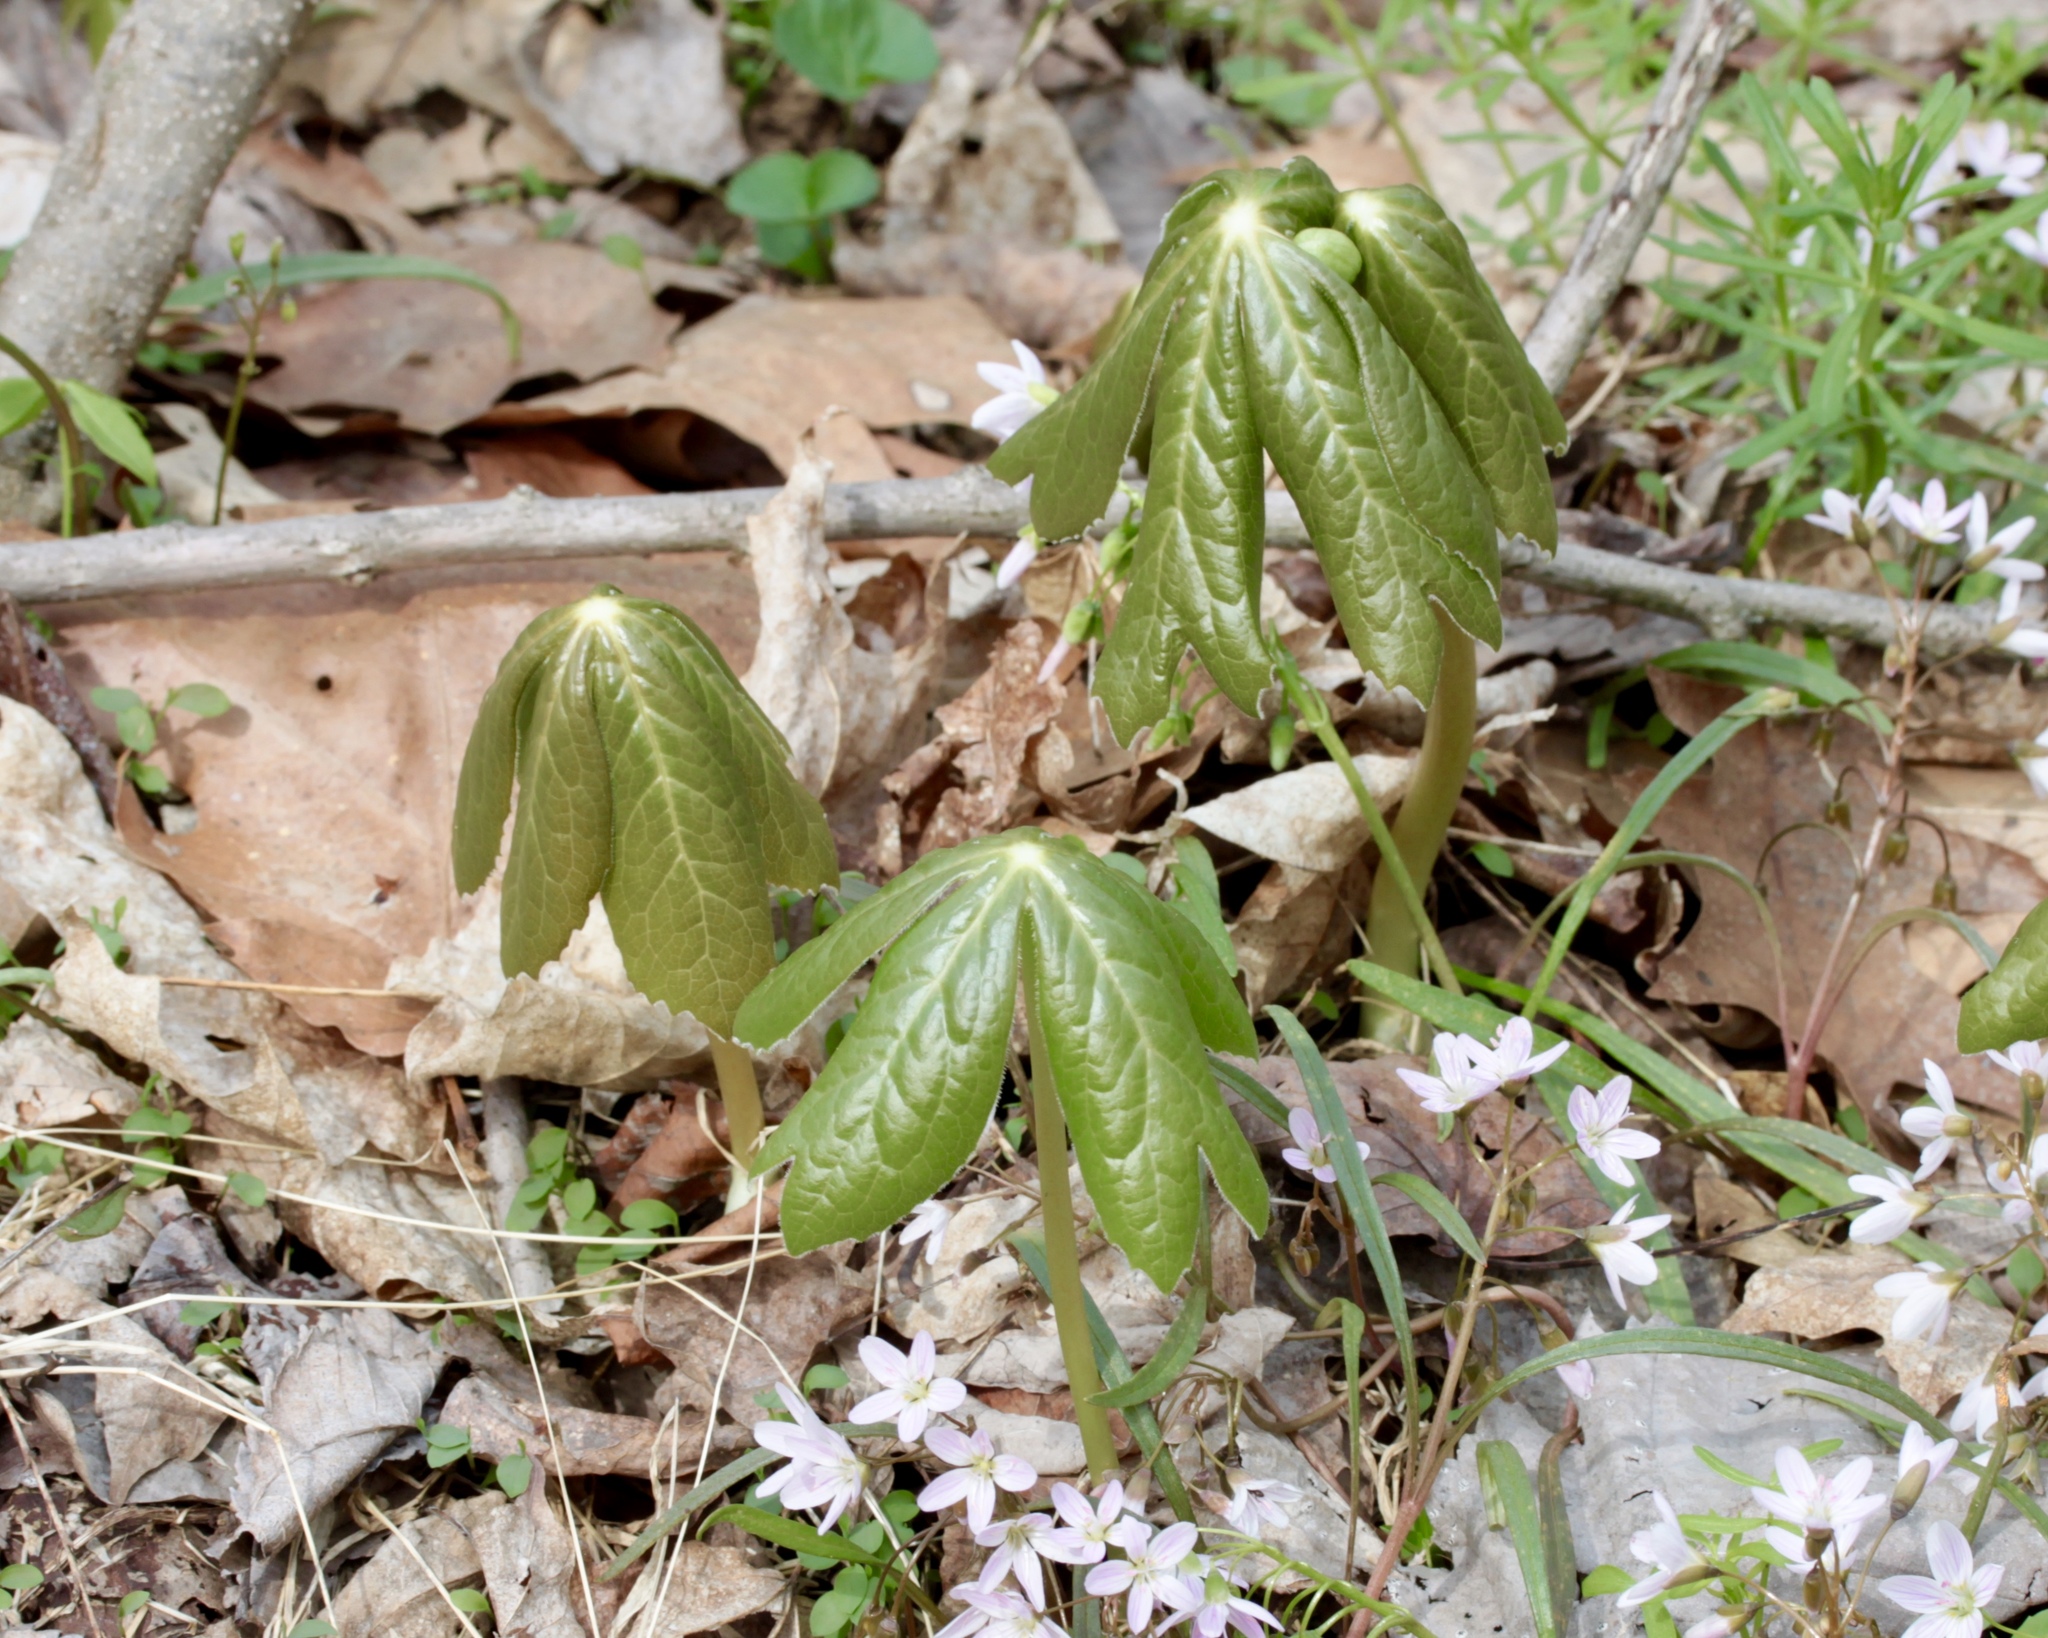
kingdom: Plantae
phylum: Tracheophyta
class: Magnoliopsida
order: Ranunculales
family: Berberidaceae
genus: Podophyllum
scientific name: Podophyllum peltatum
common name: Wild mandrake
